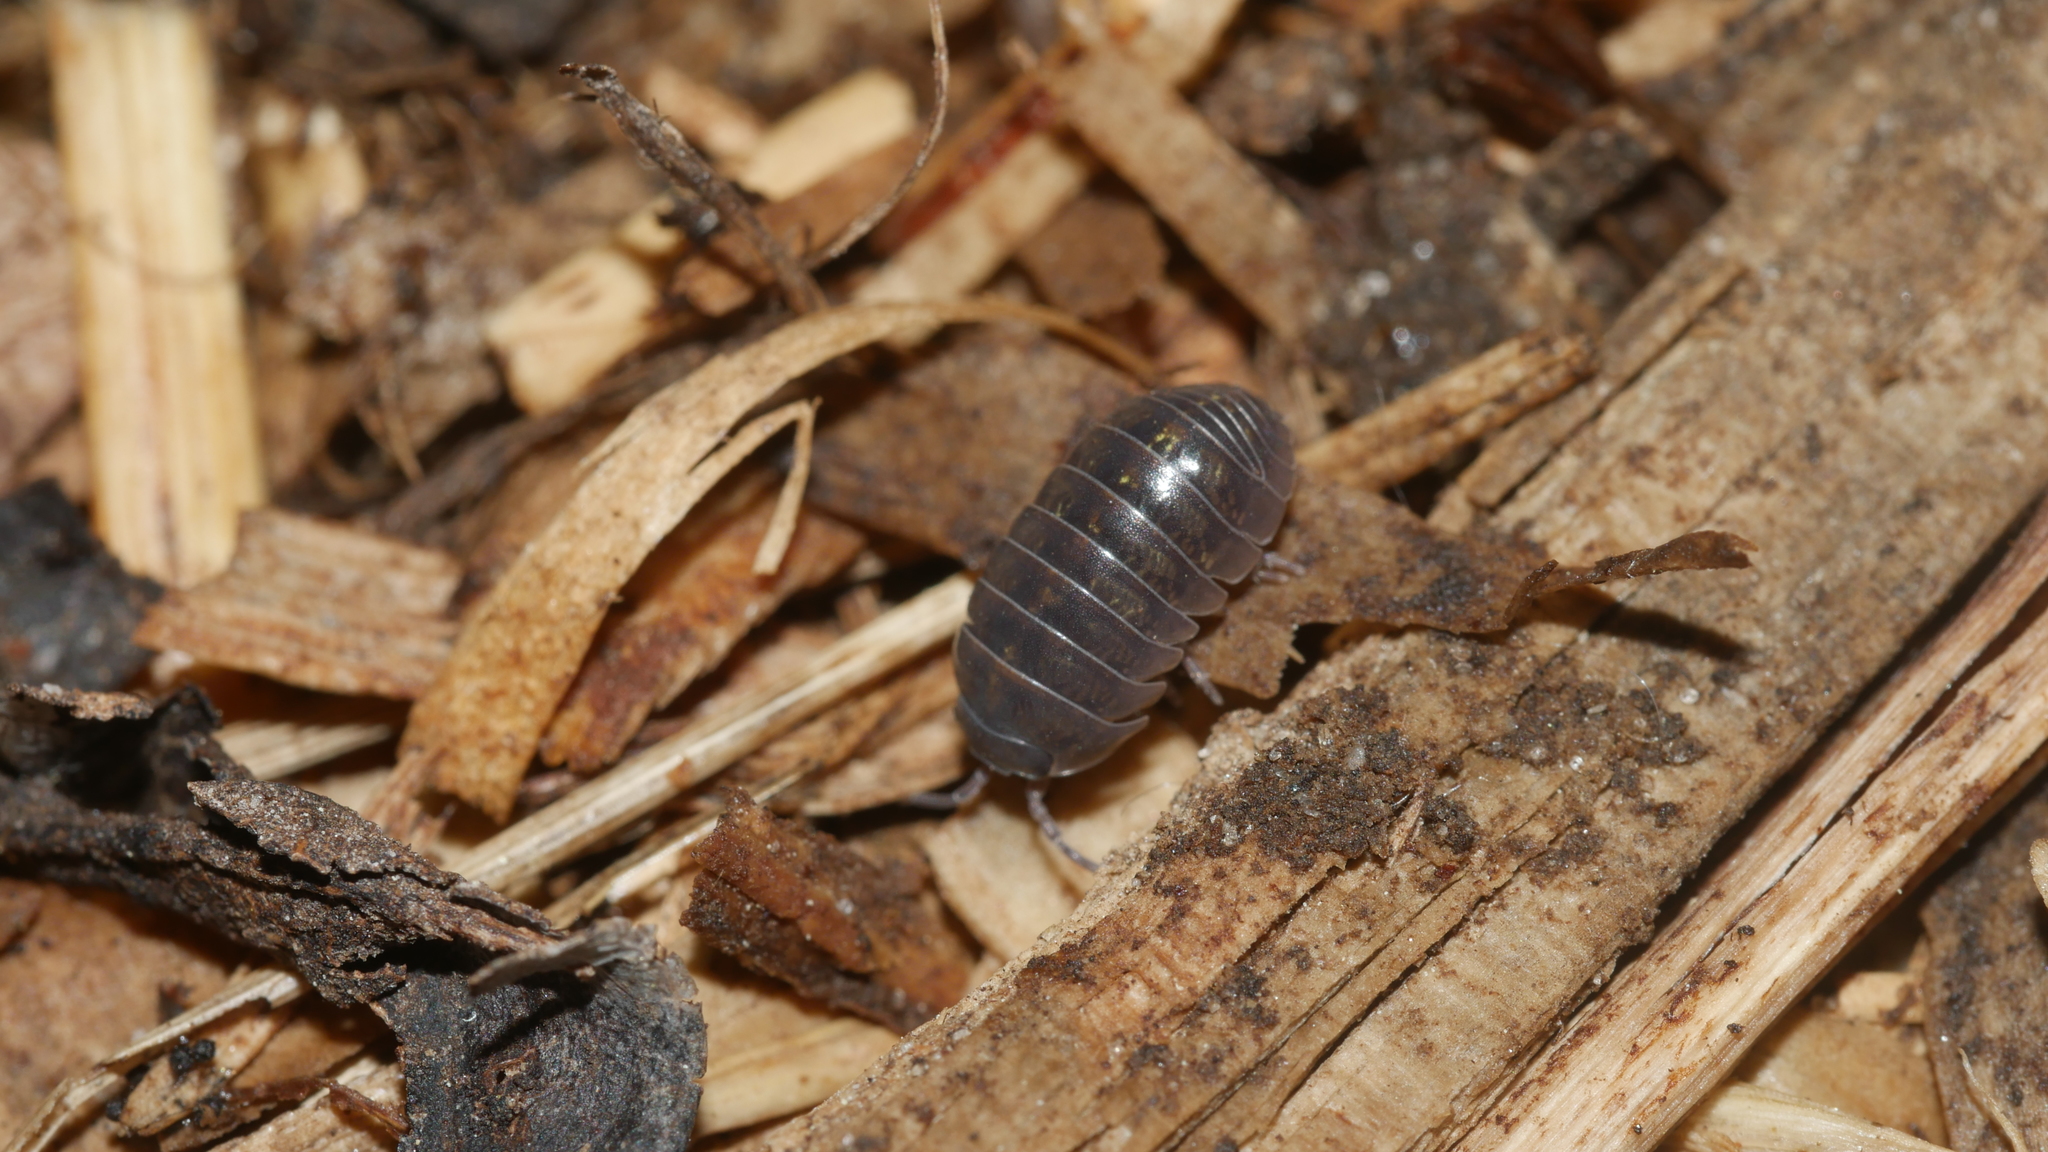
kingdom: Animalia
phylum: Arthropoda
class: Malacostraca
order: Isopoda
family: Armadillidiidae
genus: Armadillidium
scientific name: Armadillidium vulgare
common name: Common pill woodlouse
